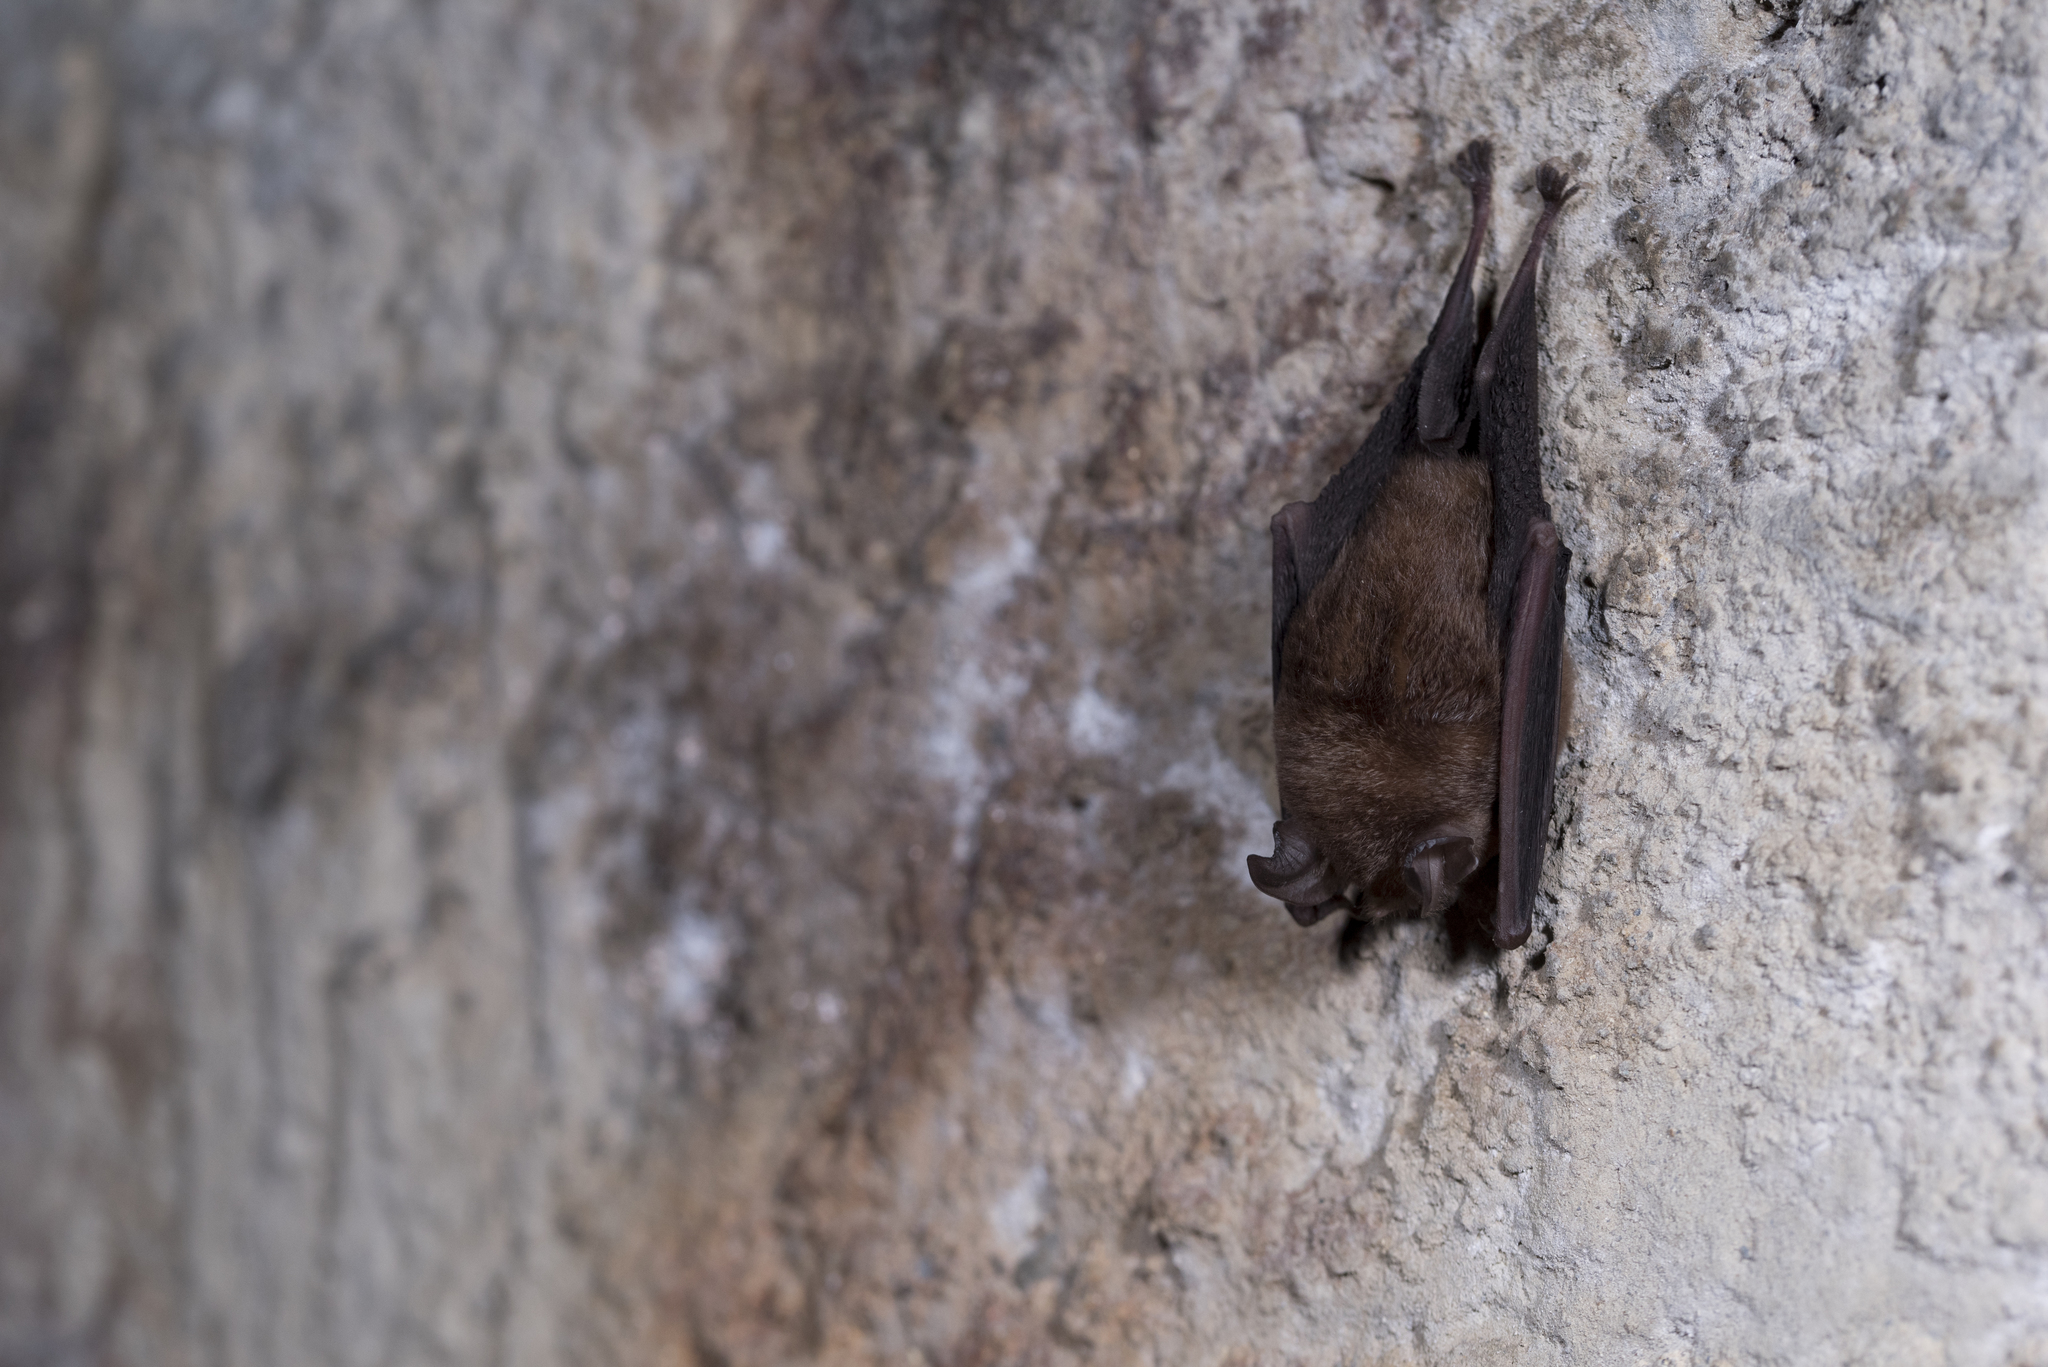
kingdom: Animalia
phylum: Chordata
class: Mammalia
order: Chiroptera
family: Rhinolophidae
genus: Rhinolophus
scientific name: Rhinolophus monoceros
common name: Formosan lesser horseshoe bat
